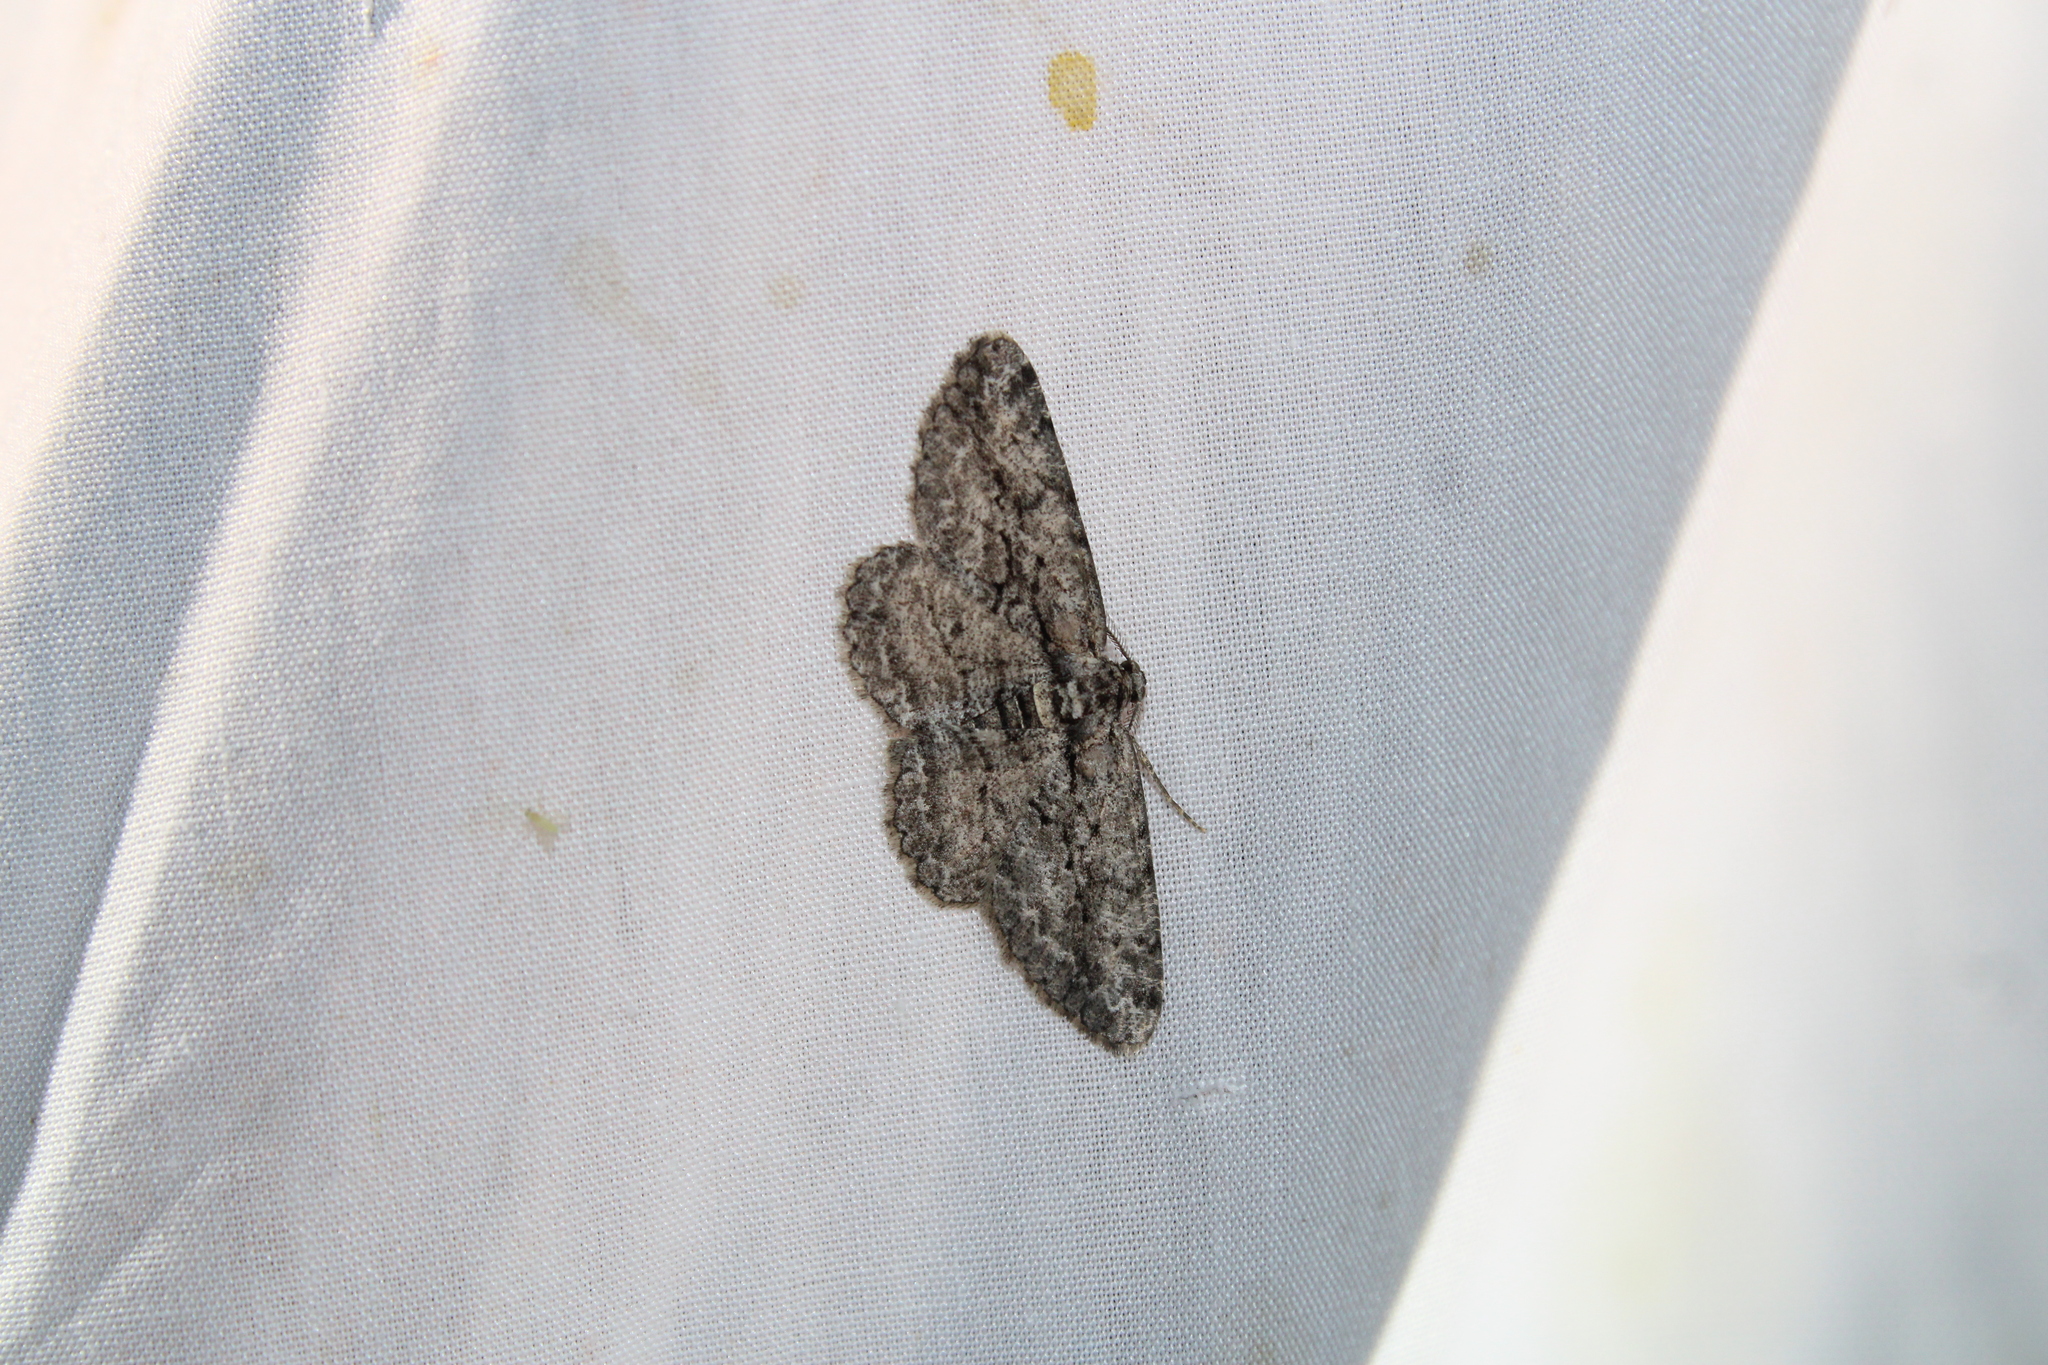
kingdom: Animalia
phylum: Arthropoda
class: Insecta
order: Lepidoptera
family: Geometridae
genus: Anavitrinella
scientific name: Anavitrinella pampinaria
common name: Common gray
